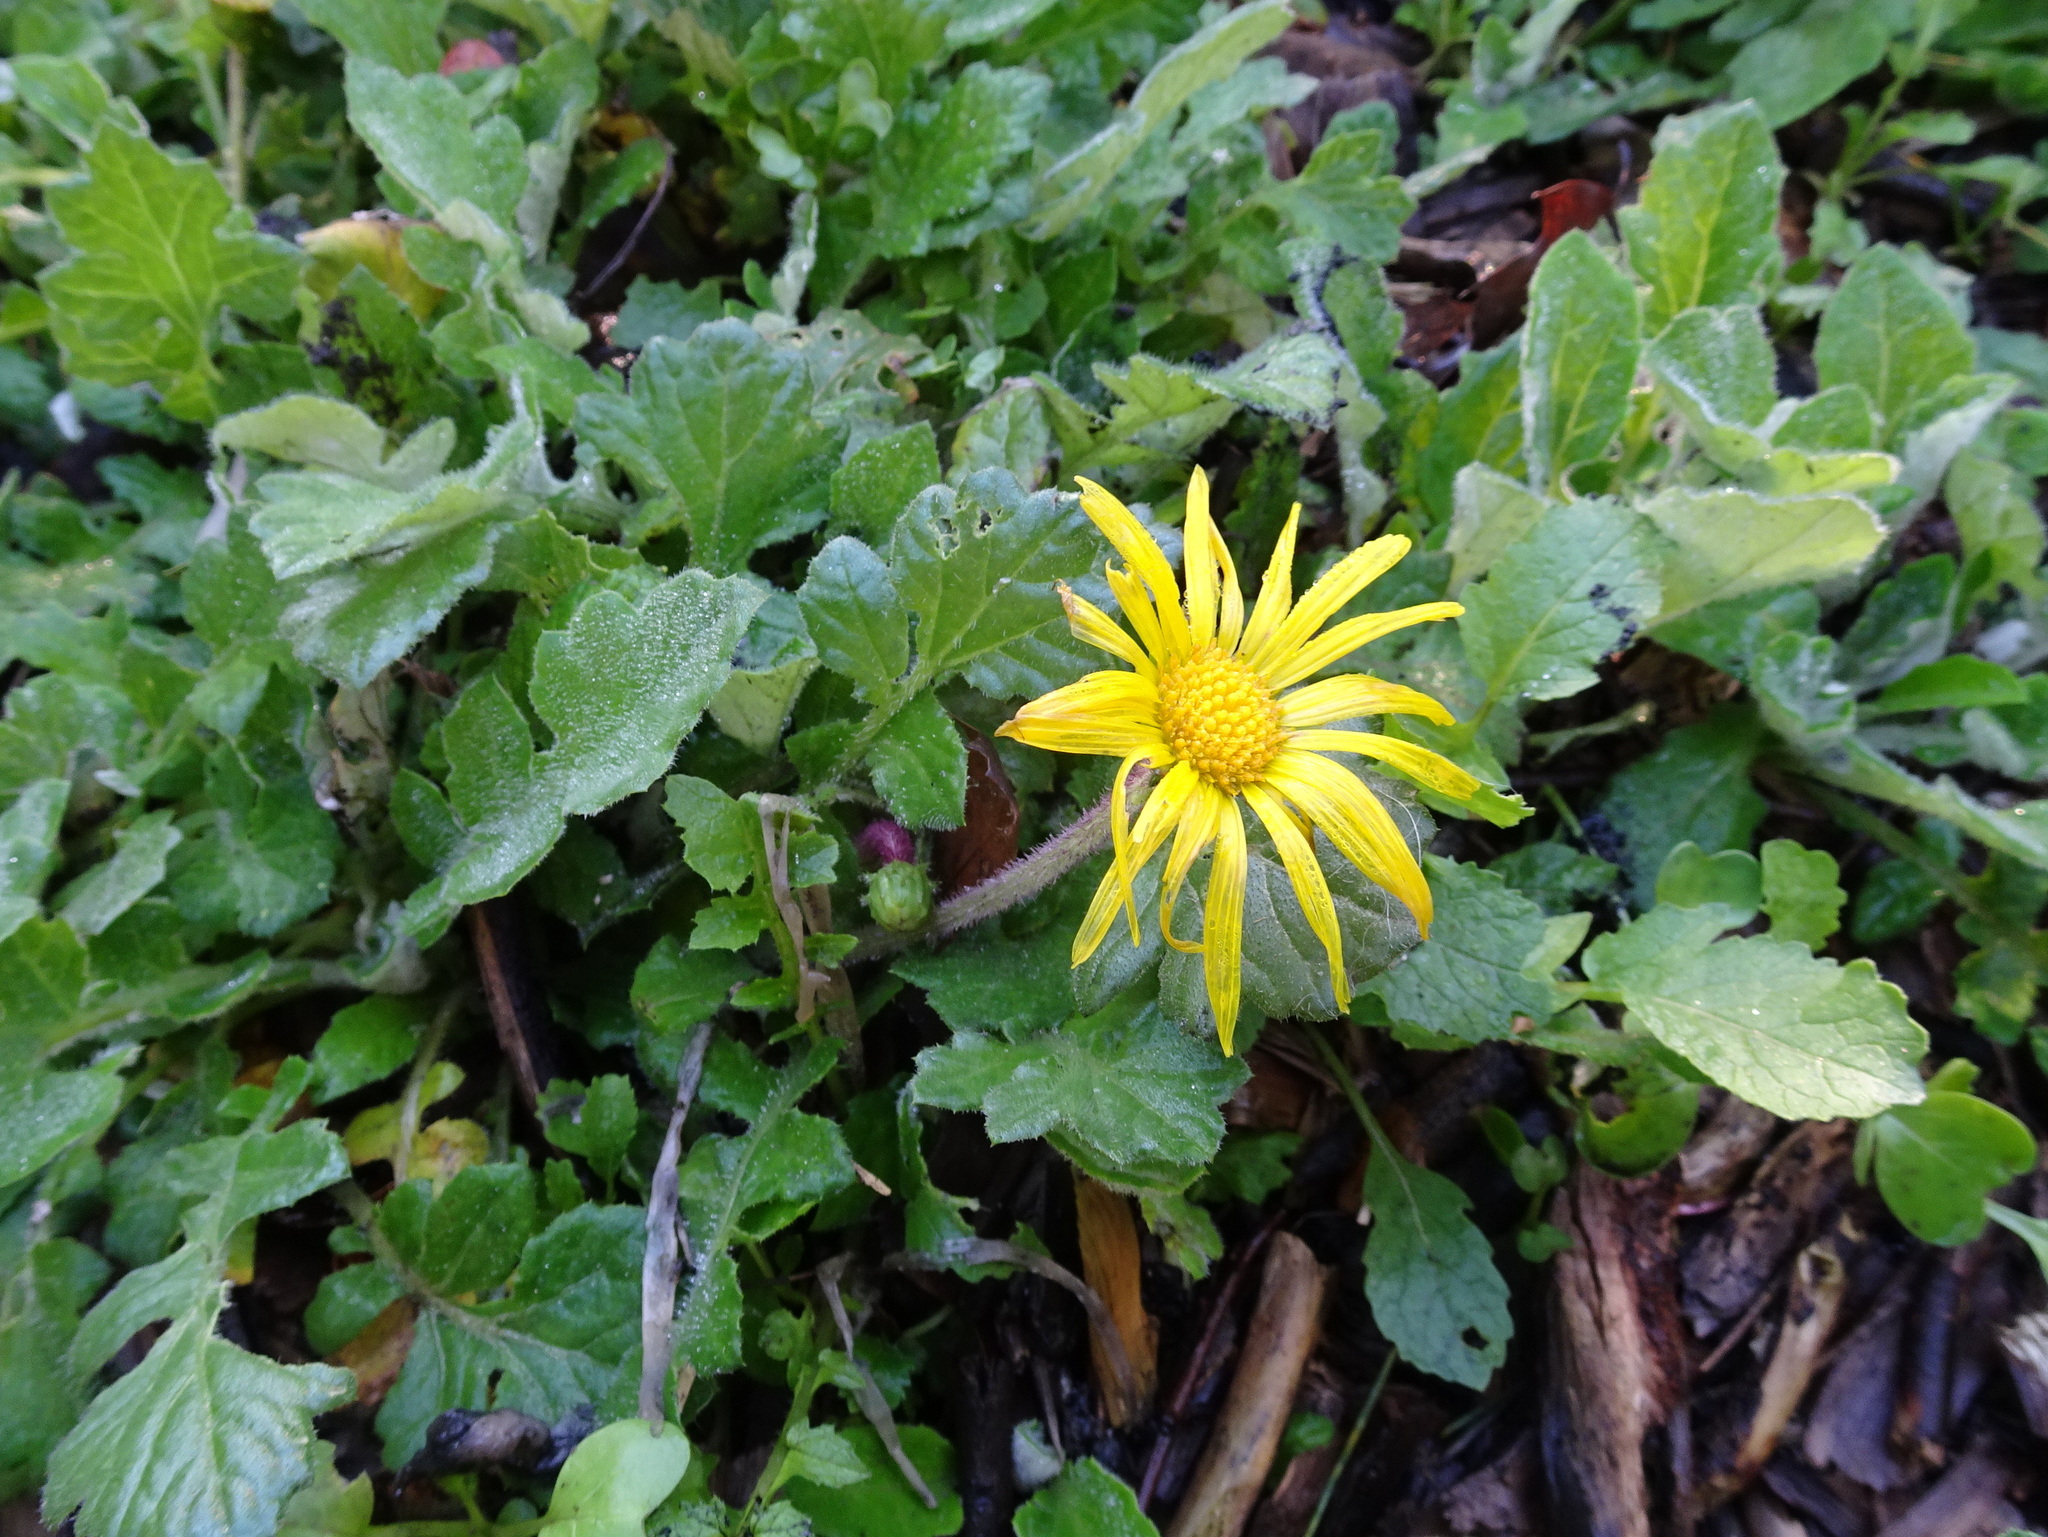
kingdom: Plantae
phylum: Tracheophyta
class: Magnoliopsida
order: Asterales
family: Asteraceae
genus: Arctotheca
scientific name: Arctotheca prostrata
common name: Capeweed
